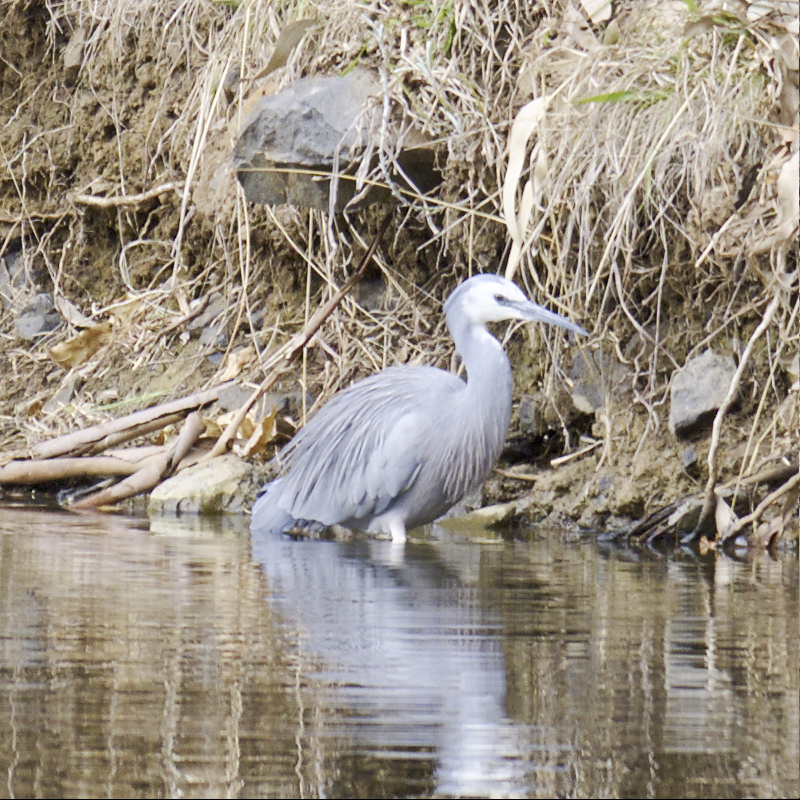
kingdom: Animalia
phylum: Chordata
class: Aves
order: Pelecaniformes
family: Ardeidae
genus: Egretta
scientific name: Egretta novaehollandiae
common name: White-faced heron
